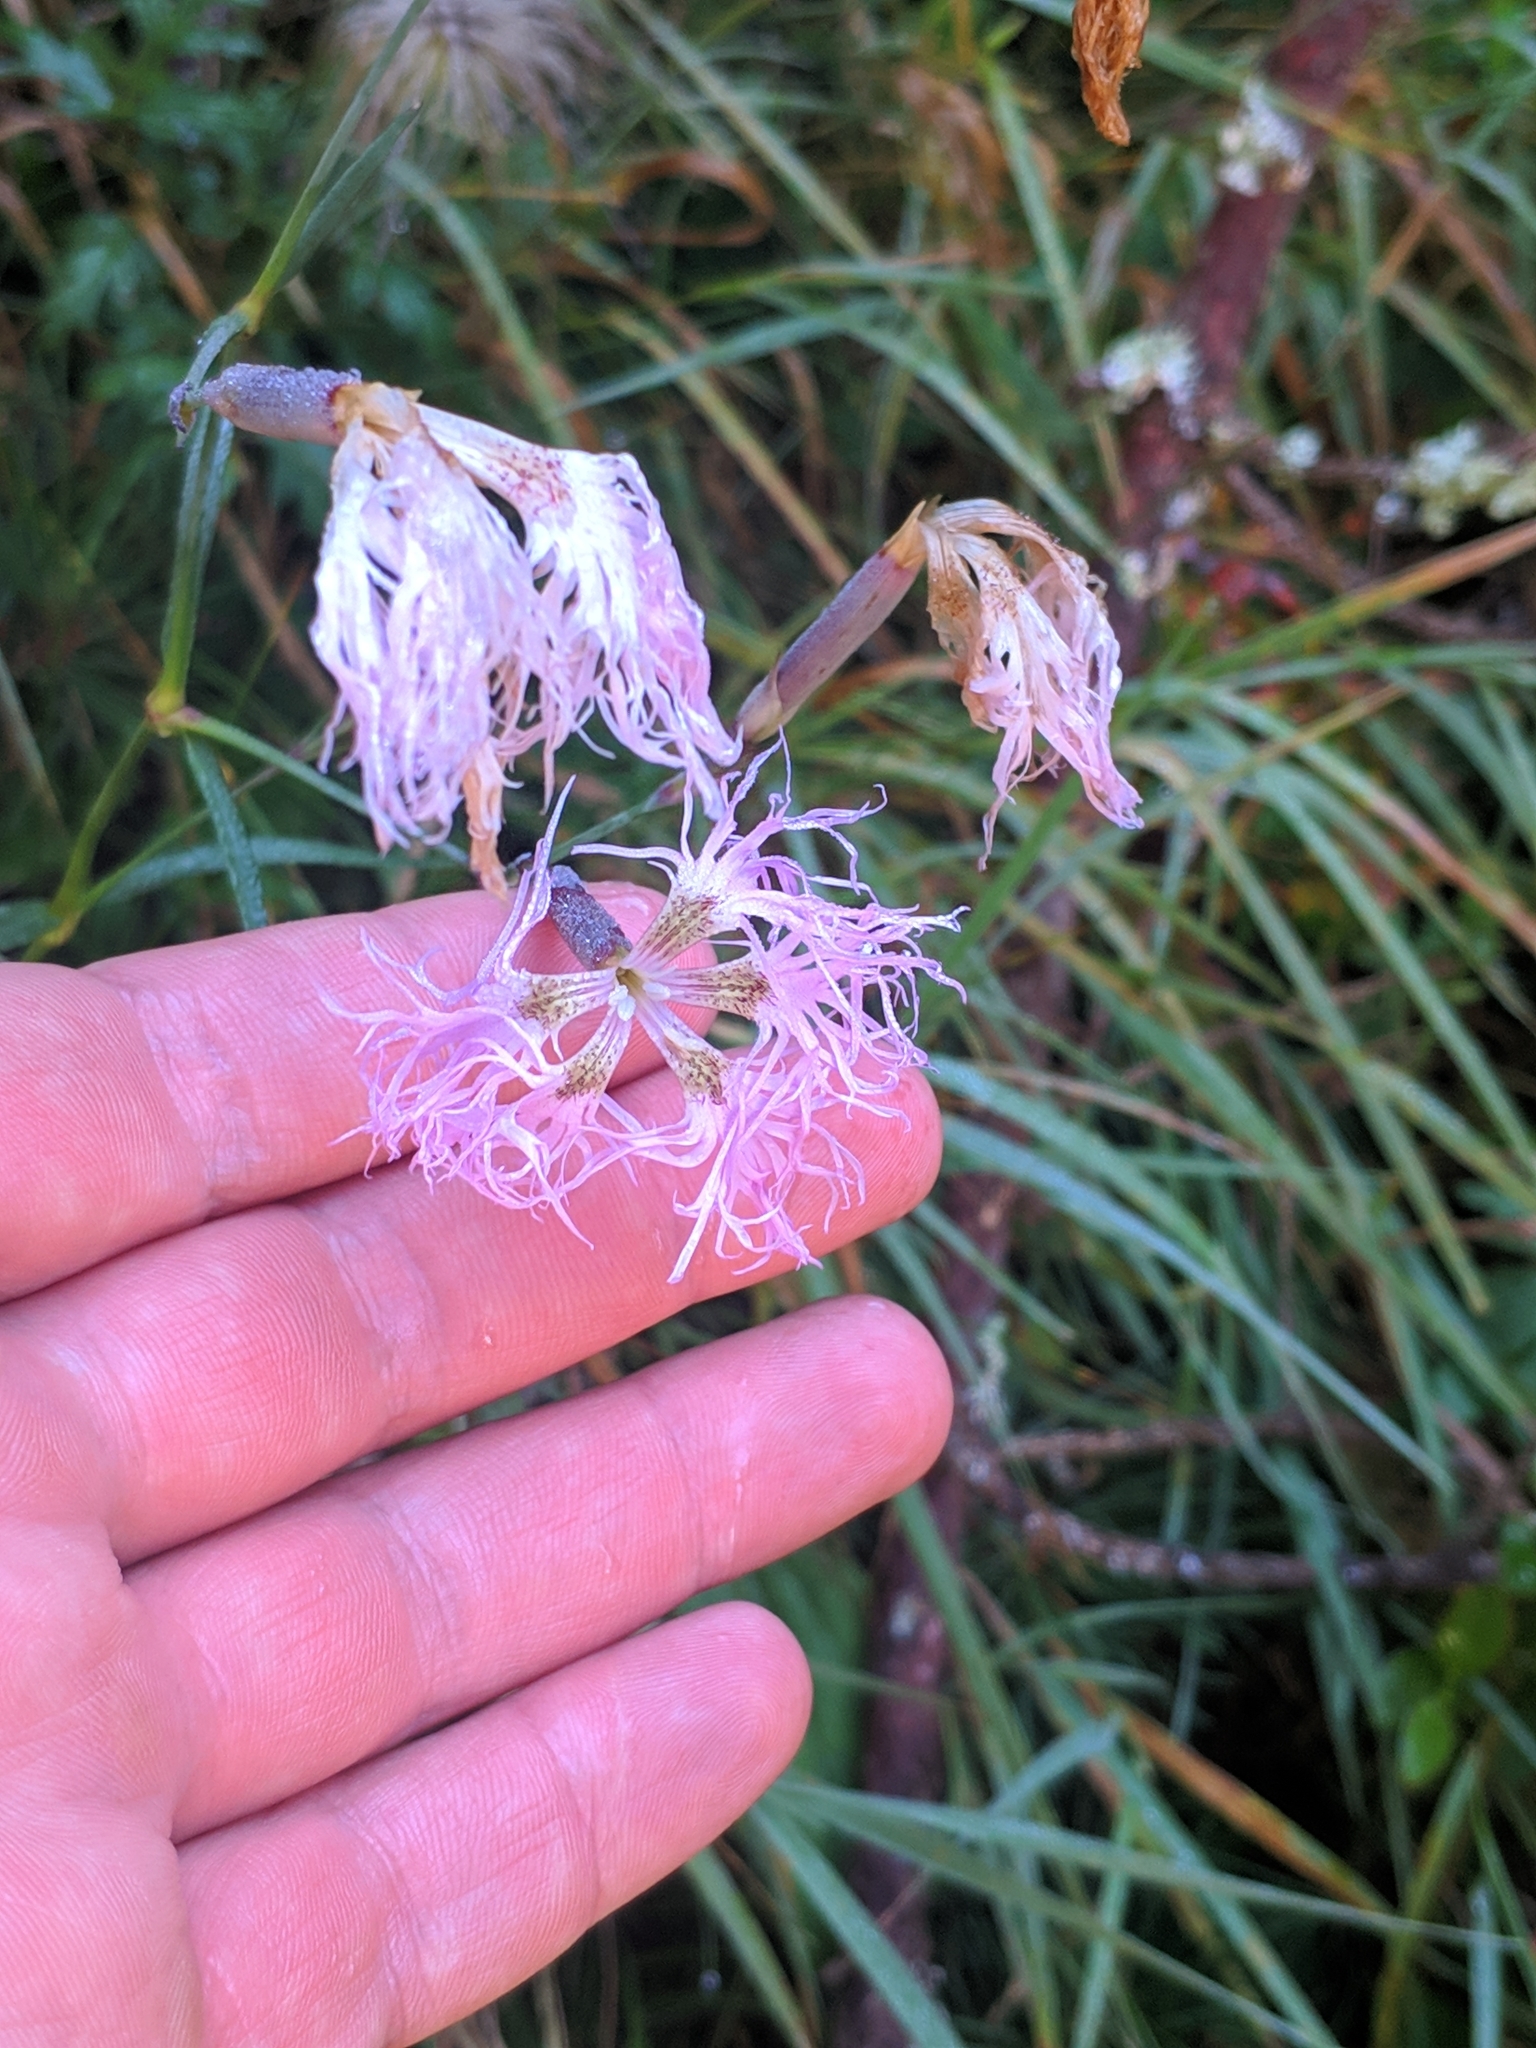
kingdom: Plantae
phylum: Tracheophyta
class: Magnoliopsida
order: Caryophyllales
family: Caryophyllaceae
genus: Dianthus
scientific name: Dianthus superbus
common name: Fringed pink
